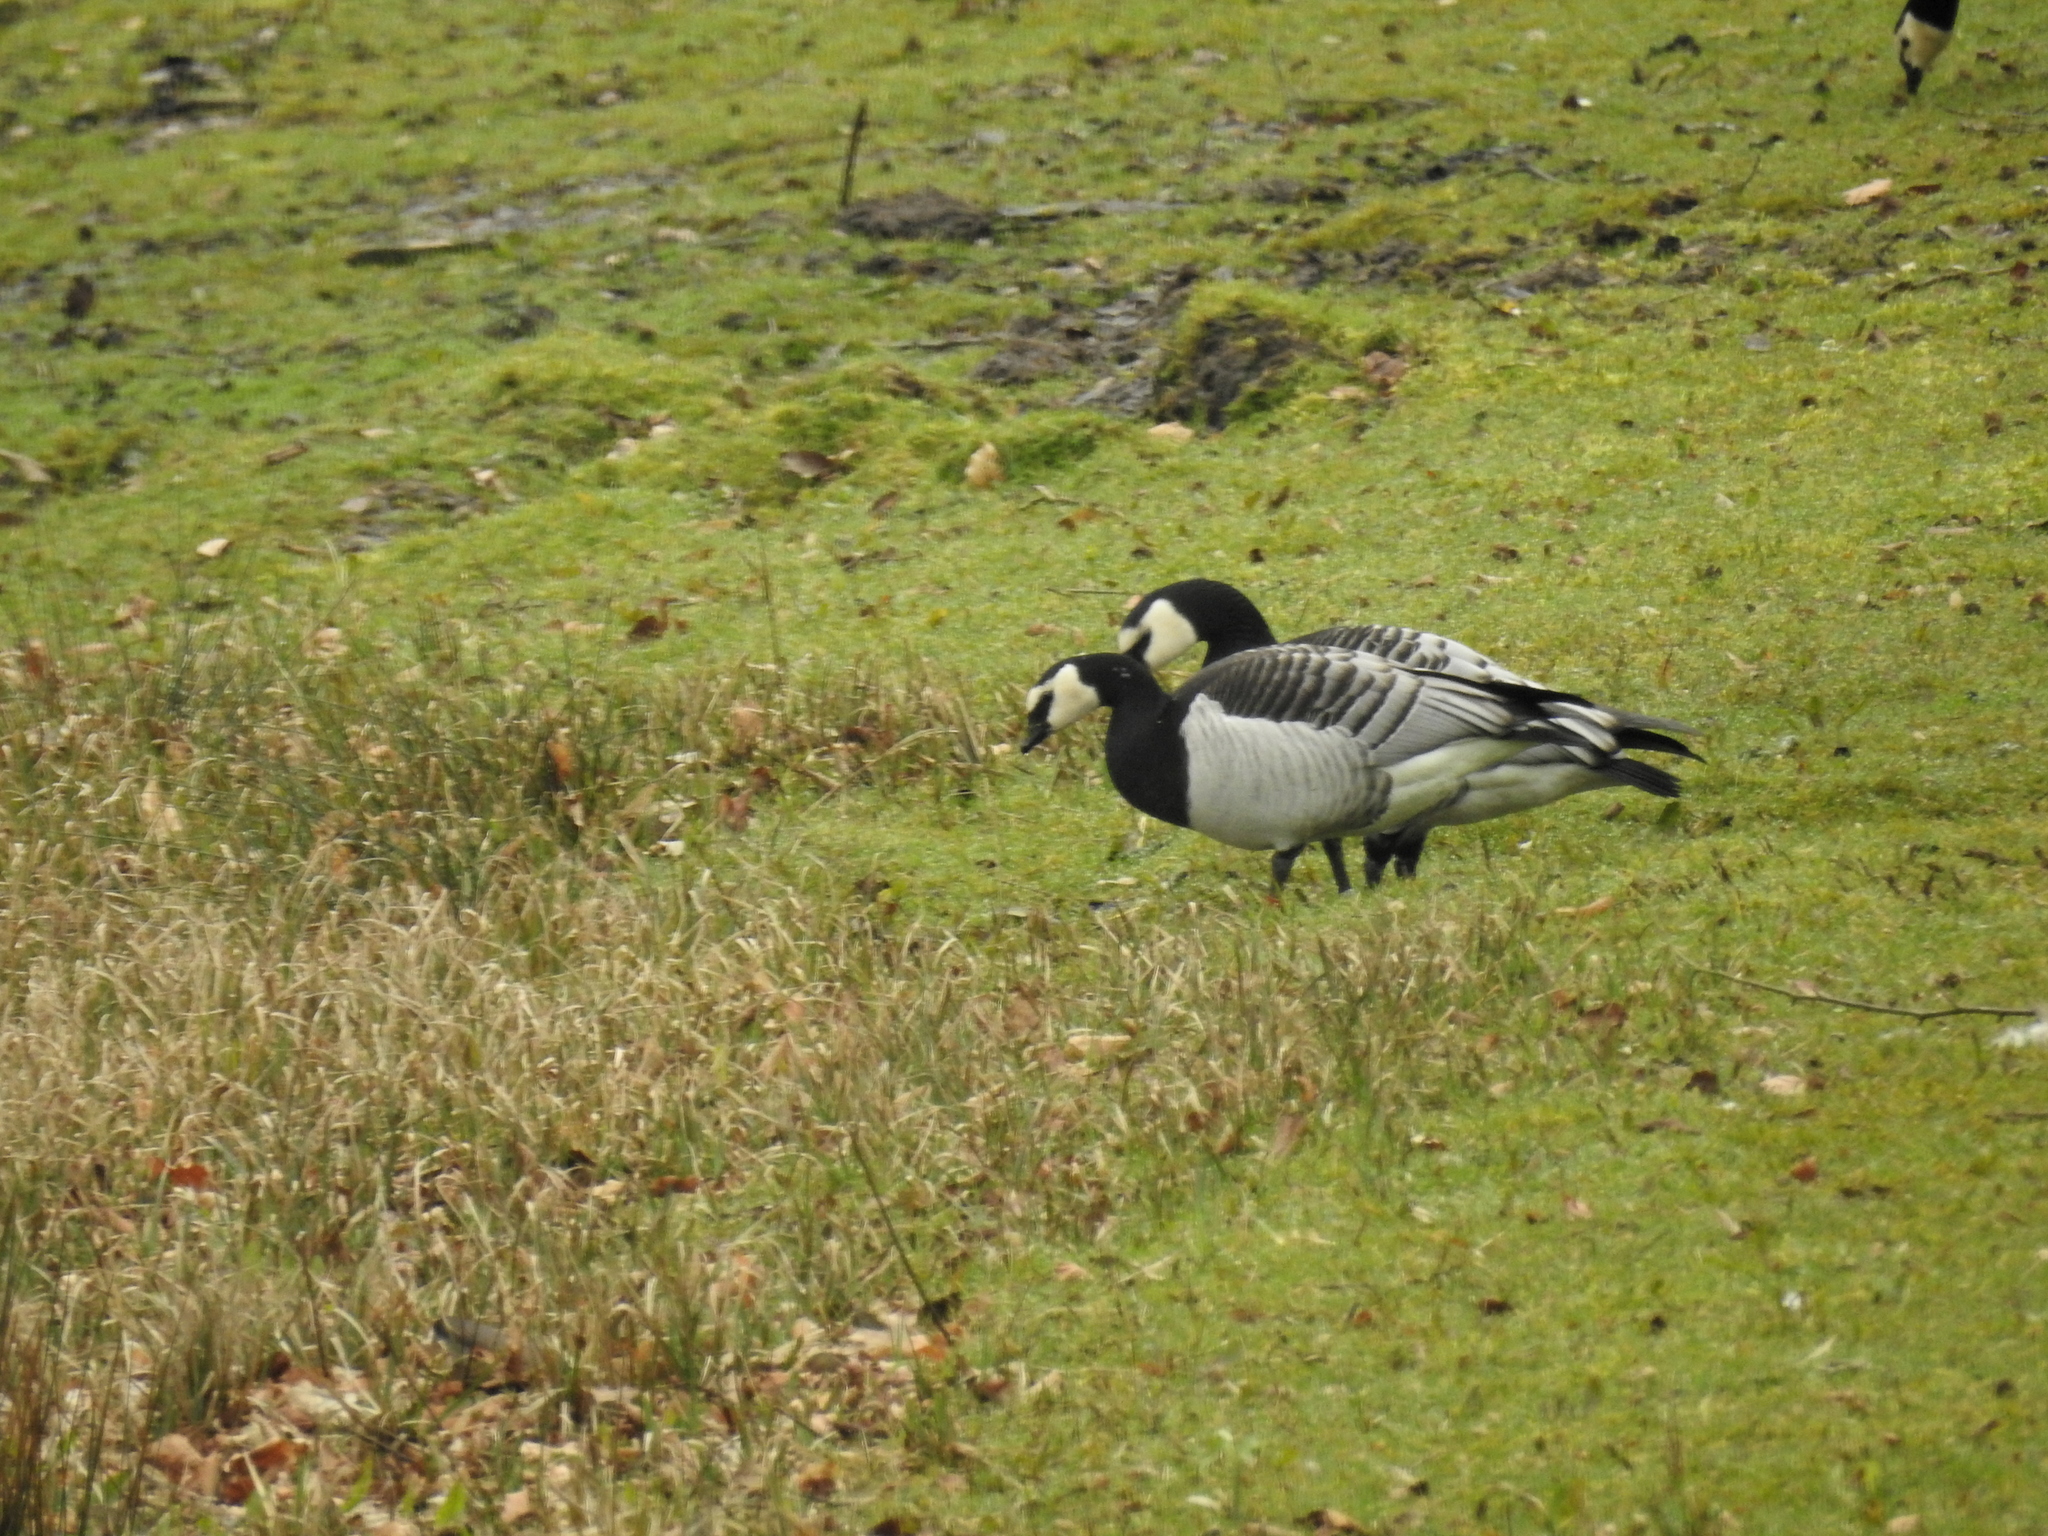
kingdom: Animalia
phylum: Chordata
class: Aves
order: Anseriformes
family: Anatidae
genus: Branta
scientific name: Branta leucopsis
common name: Barnacle goose
